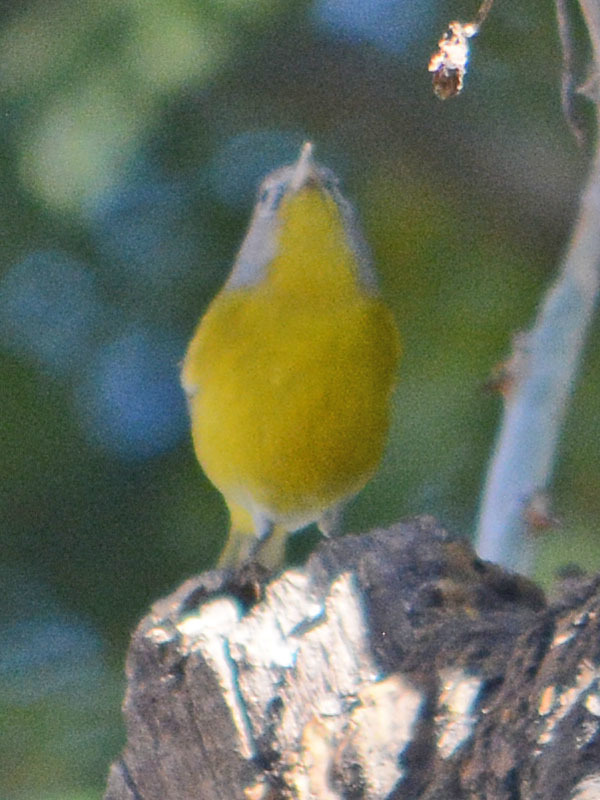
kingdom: Animalia
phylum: Chordata
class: Aves
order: Passeriformes
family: Parulidae
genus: Leiothlypis
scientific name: Leiothlypis ruficapilla
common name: Nashville warbler
